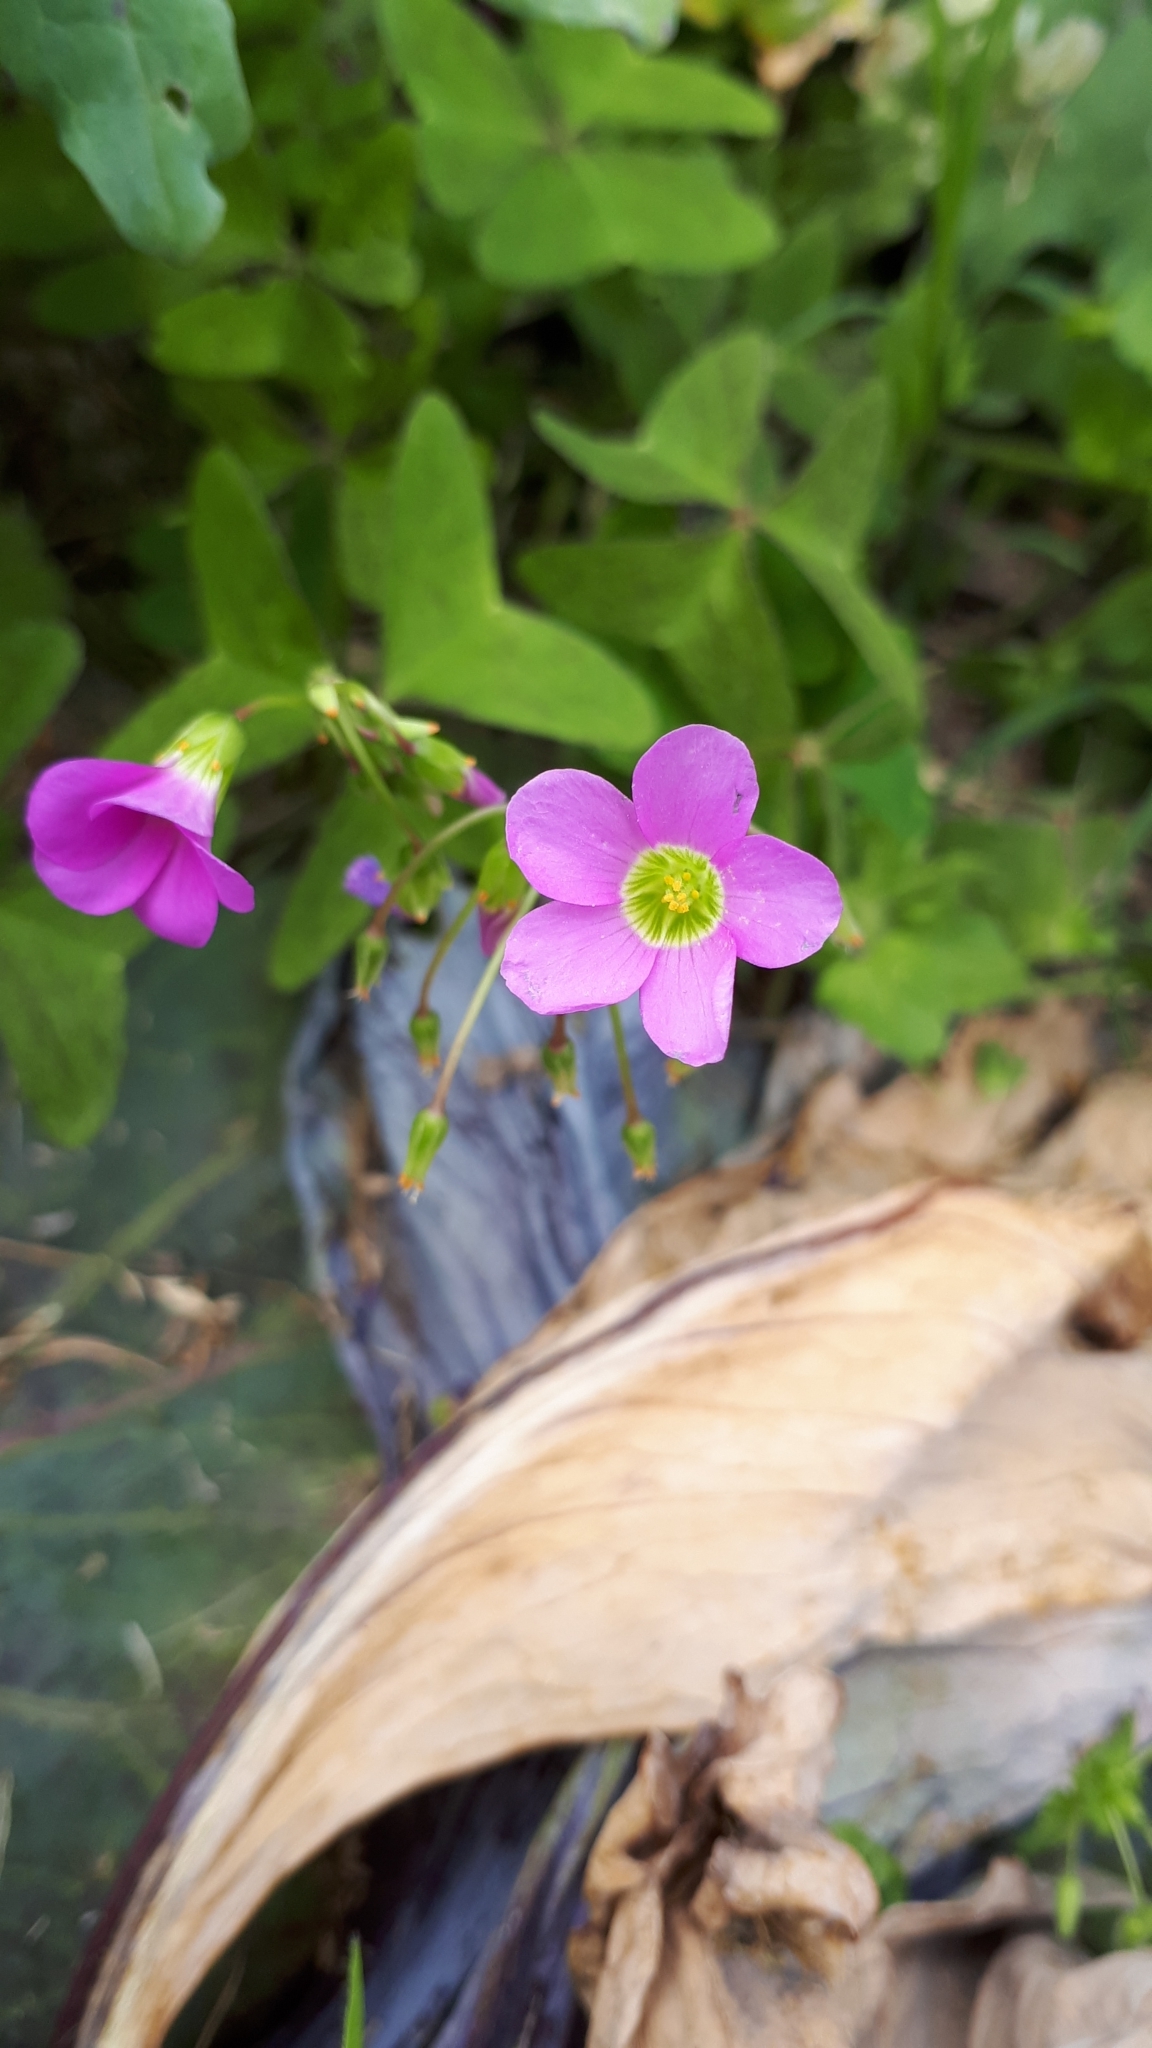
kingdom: Plantae
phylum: Tracheophyta
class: Magnoliopsida
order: Oxalidales
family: Oxalidaceae
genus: Oxalis
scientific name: Oxalis latifolia
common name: Garden pink-sorrel
